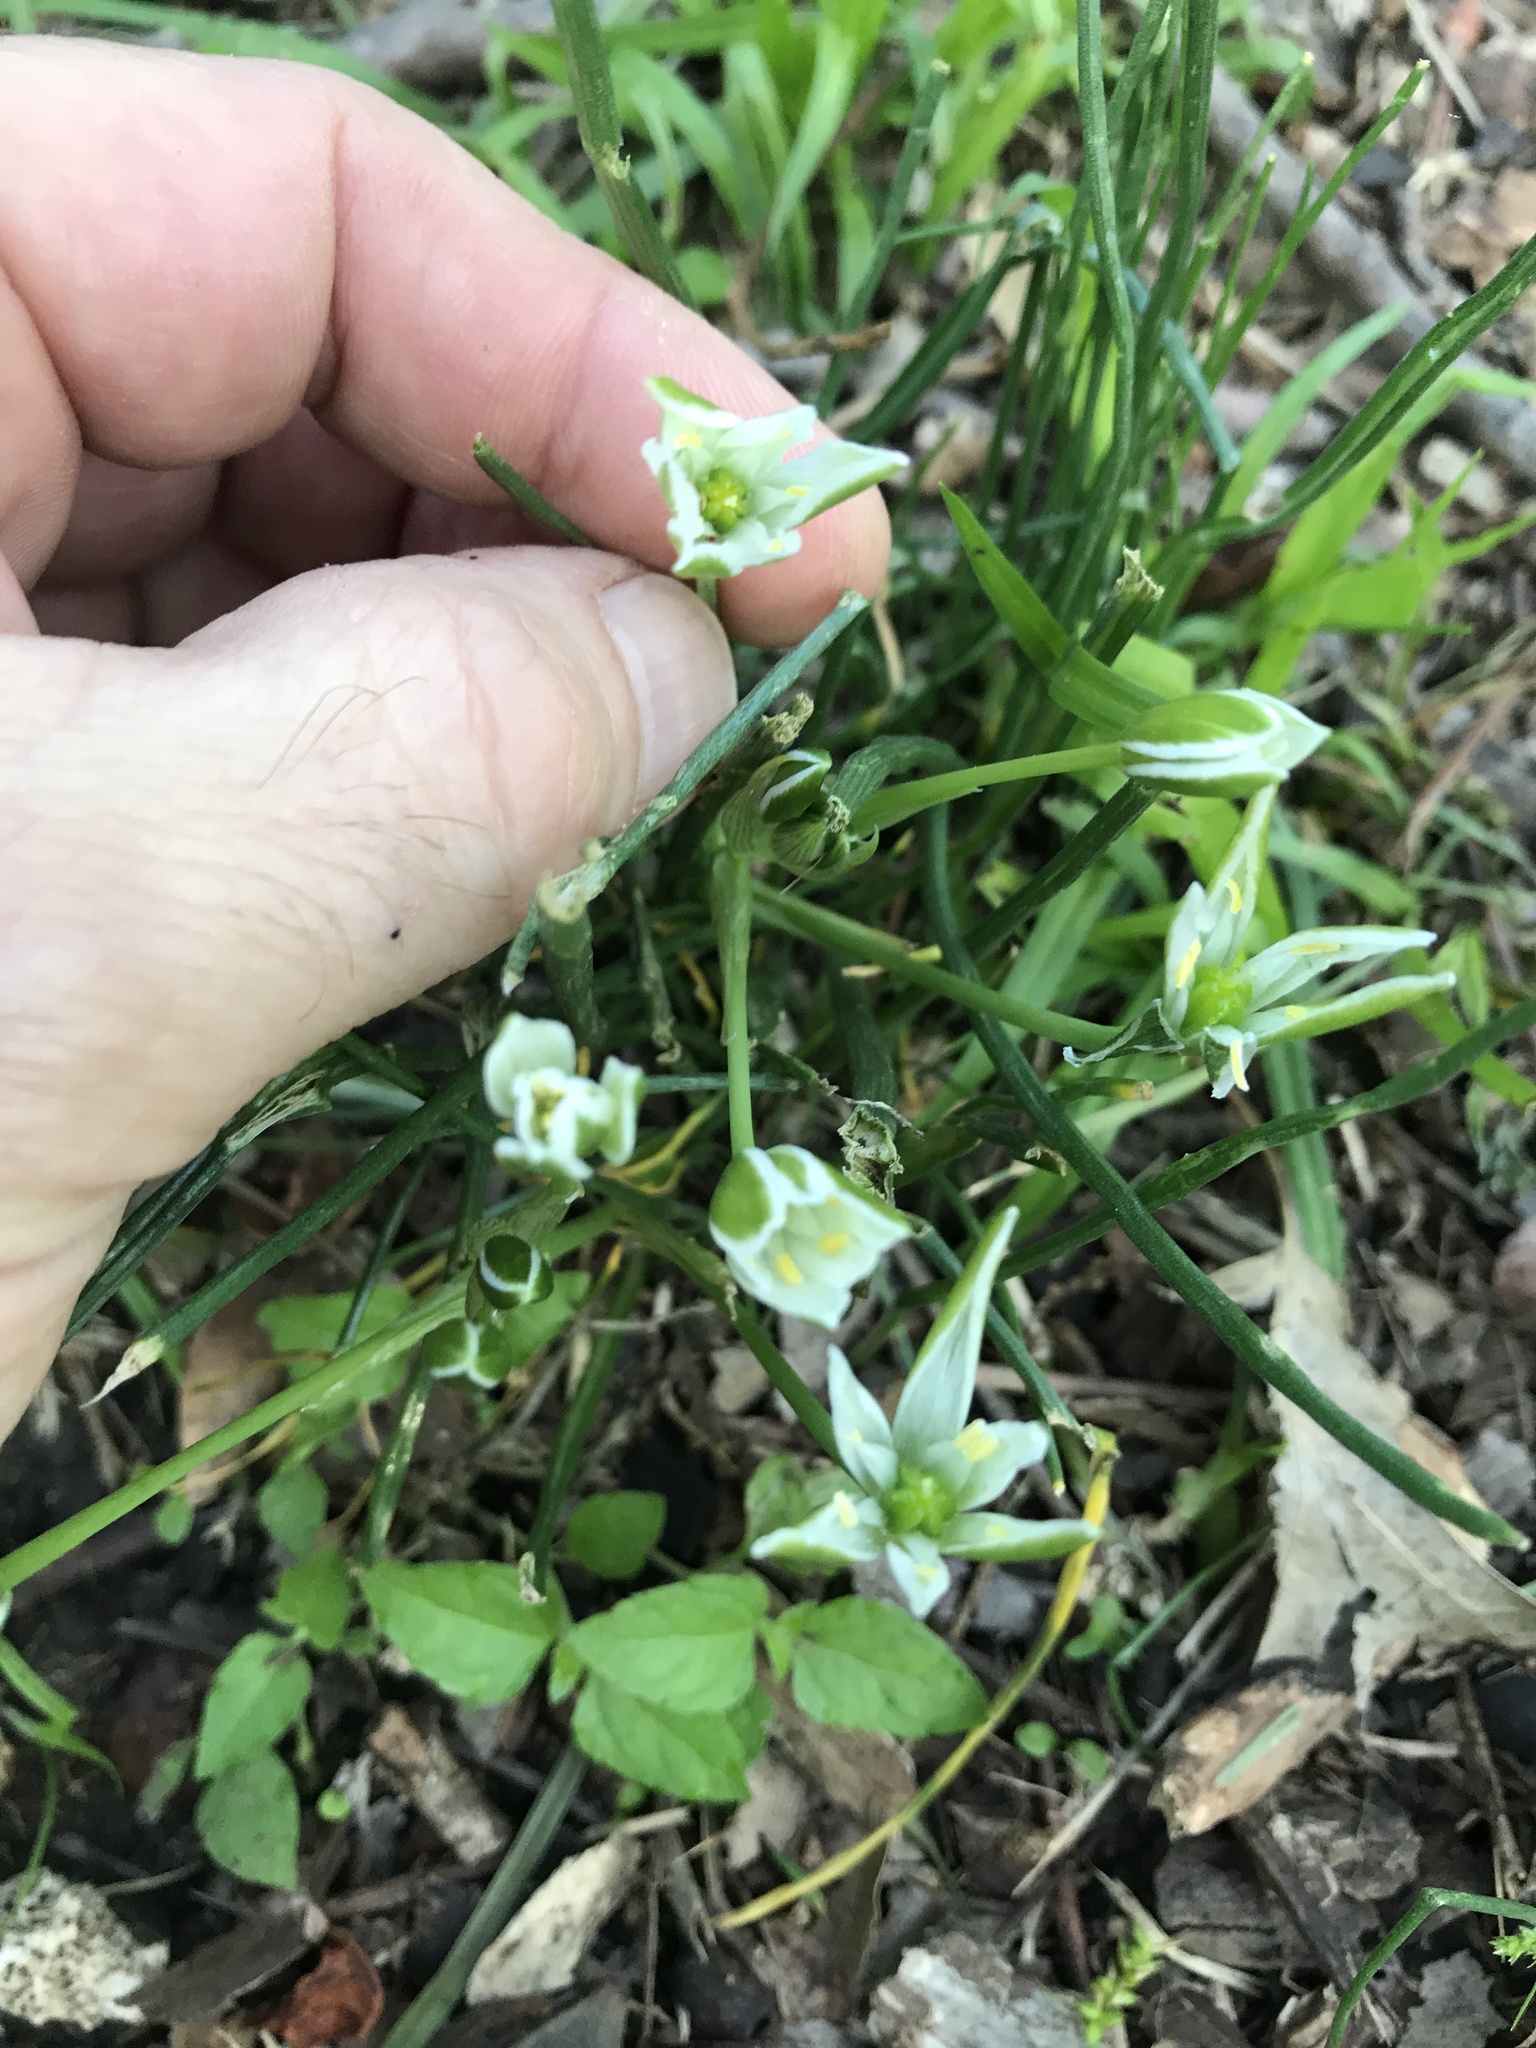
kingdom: Plantae
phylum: Tracheophyta
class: Liliopsida
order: Asparagales
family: Asparagaceae
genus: Ornithogalum
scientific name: Ornithogalum umbellatum
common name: Garden star-of-bethlehem
